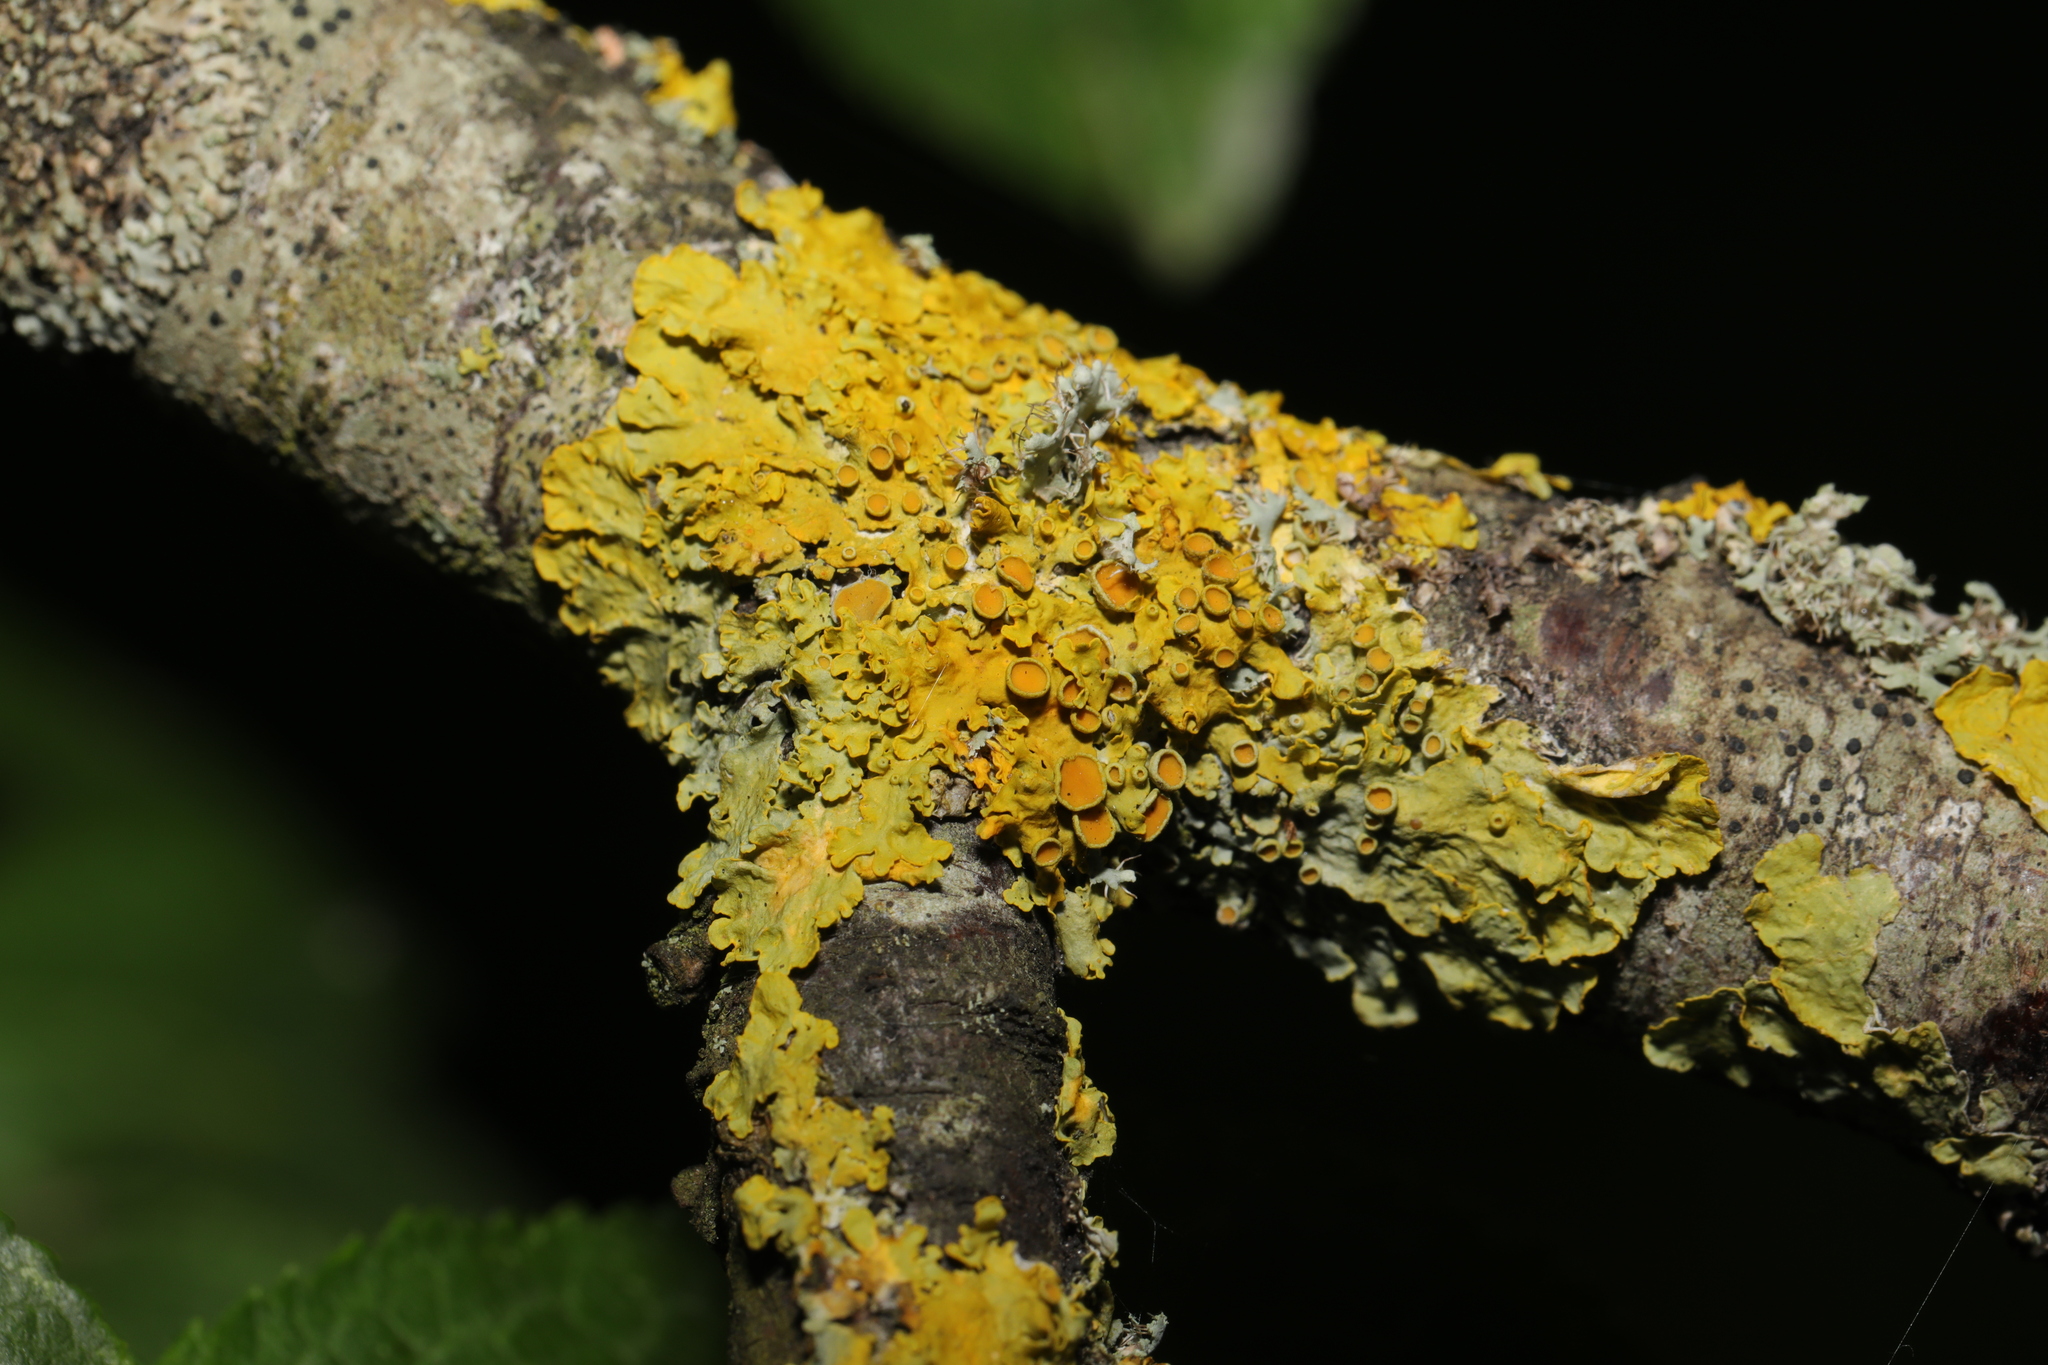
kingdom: Fungi
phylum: Ascomycota
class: Lecanoromycetes
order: Teloschistales
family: Teloschistaceae
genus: Xanthoria
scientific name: Xanthoria parietina
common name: Common orange lichen
